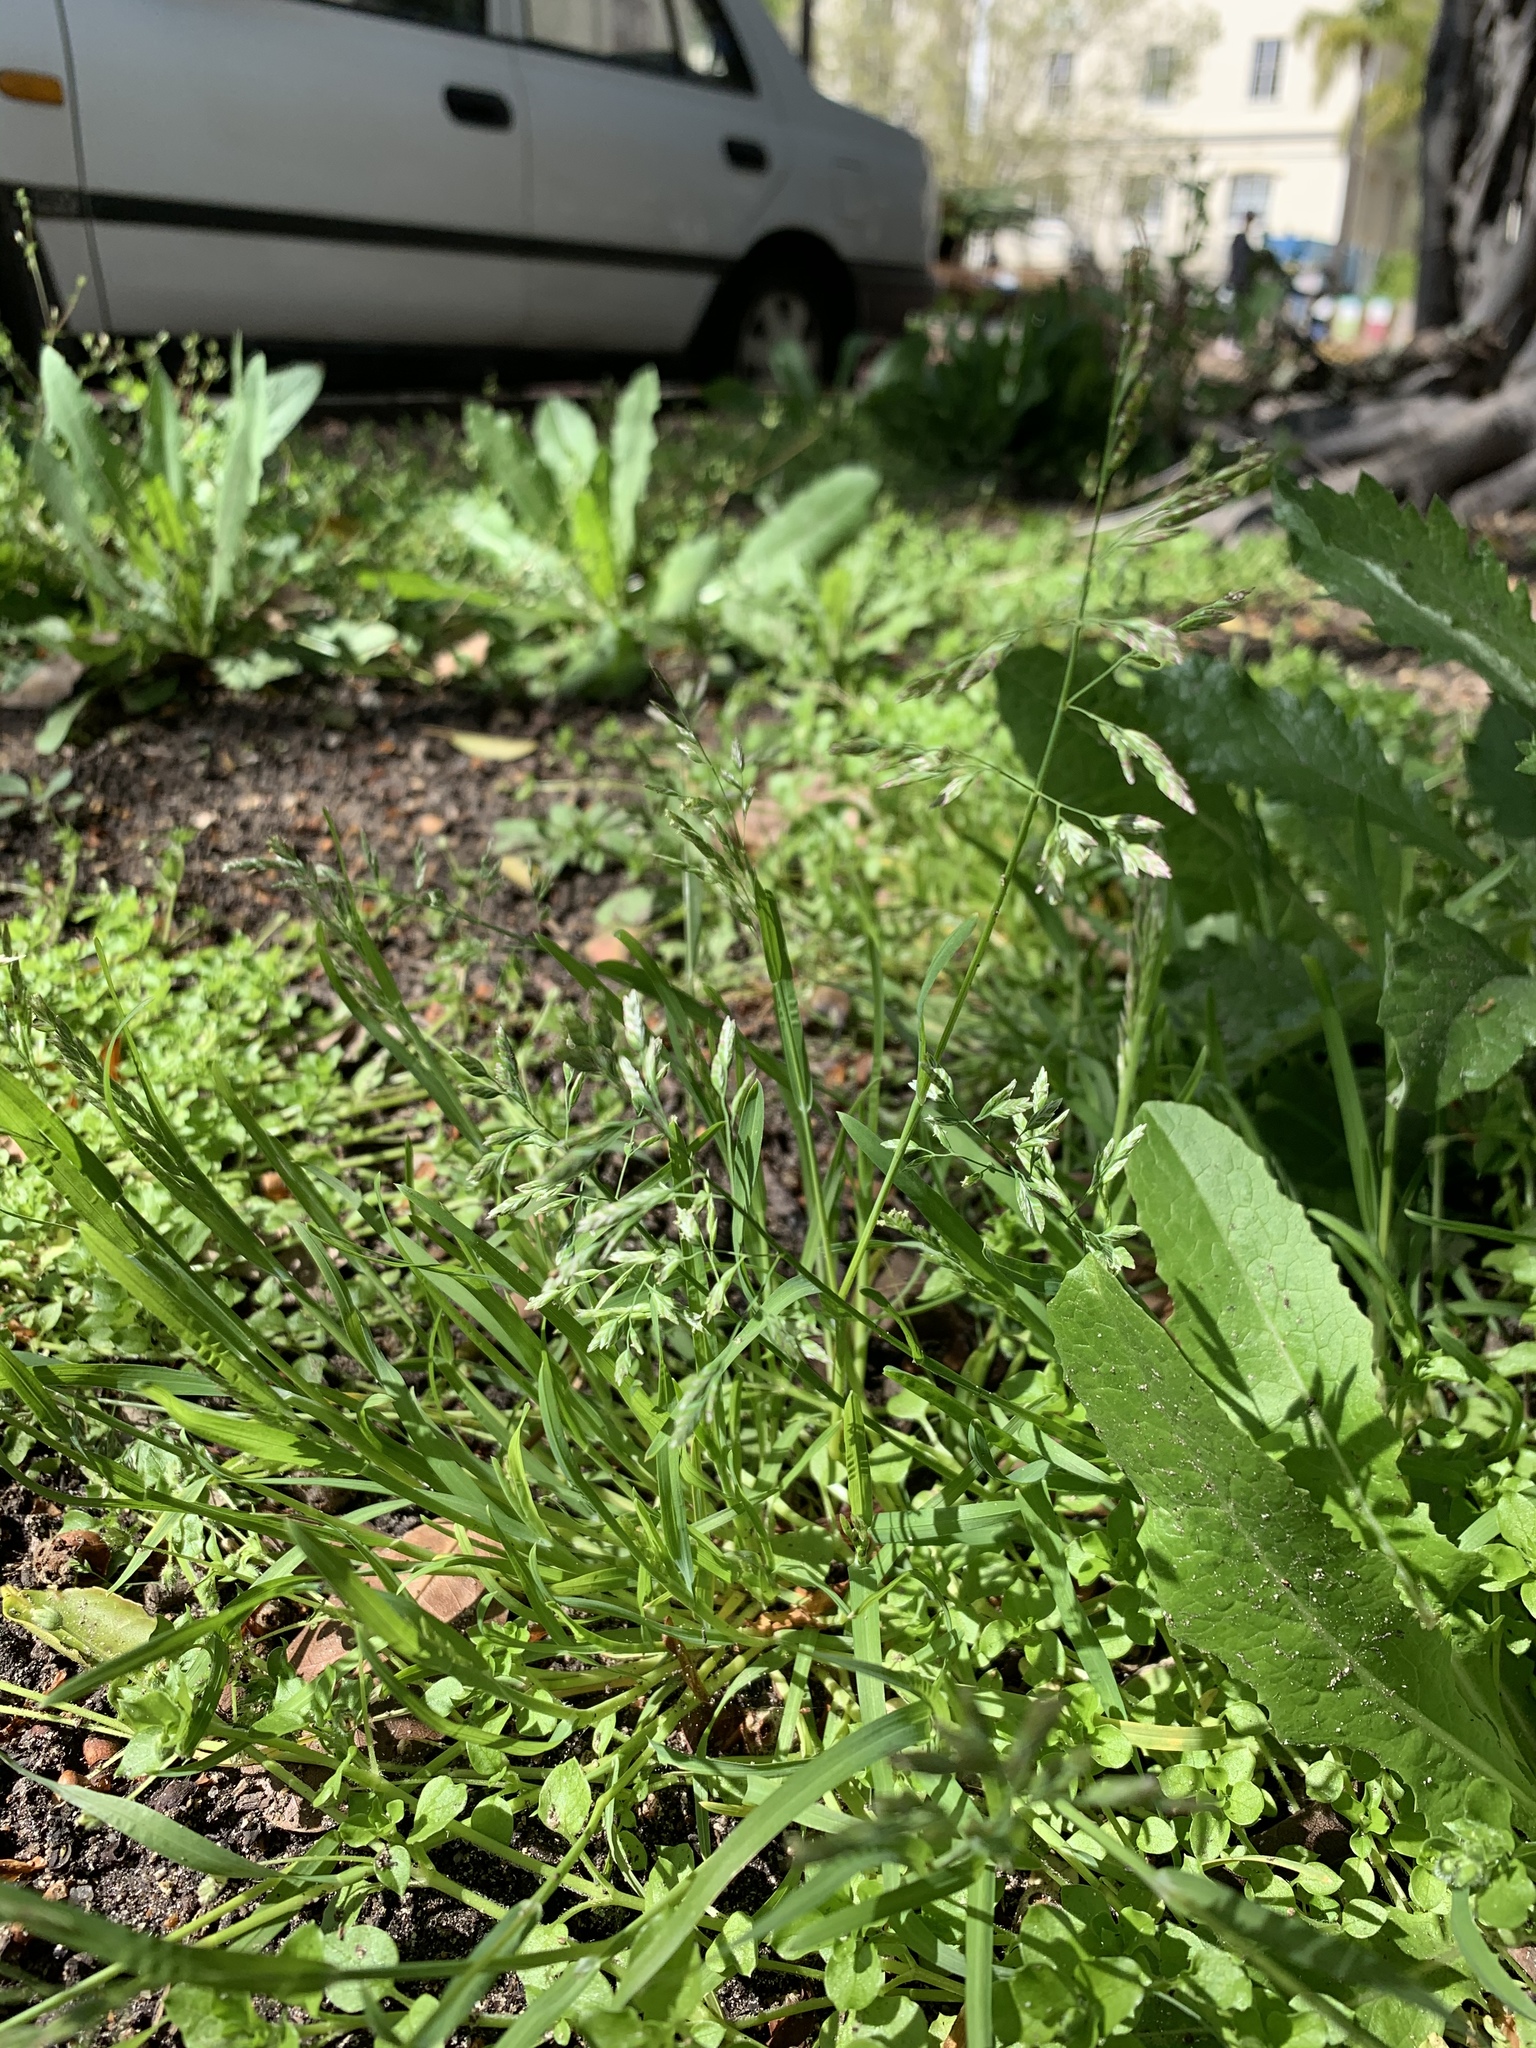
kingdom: Plantae
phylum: Tracheophyta
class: Liliopsida
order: Poales
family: Poaceae
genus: Poa
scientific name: Poa annua
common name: Annual bluegrass
